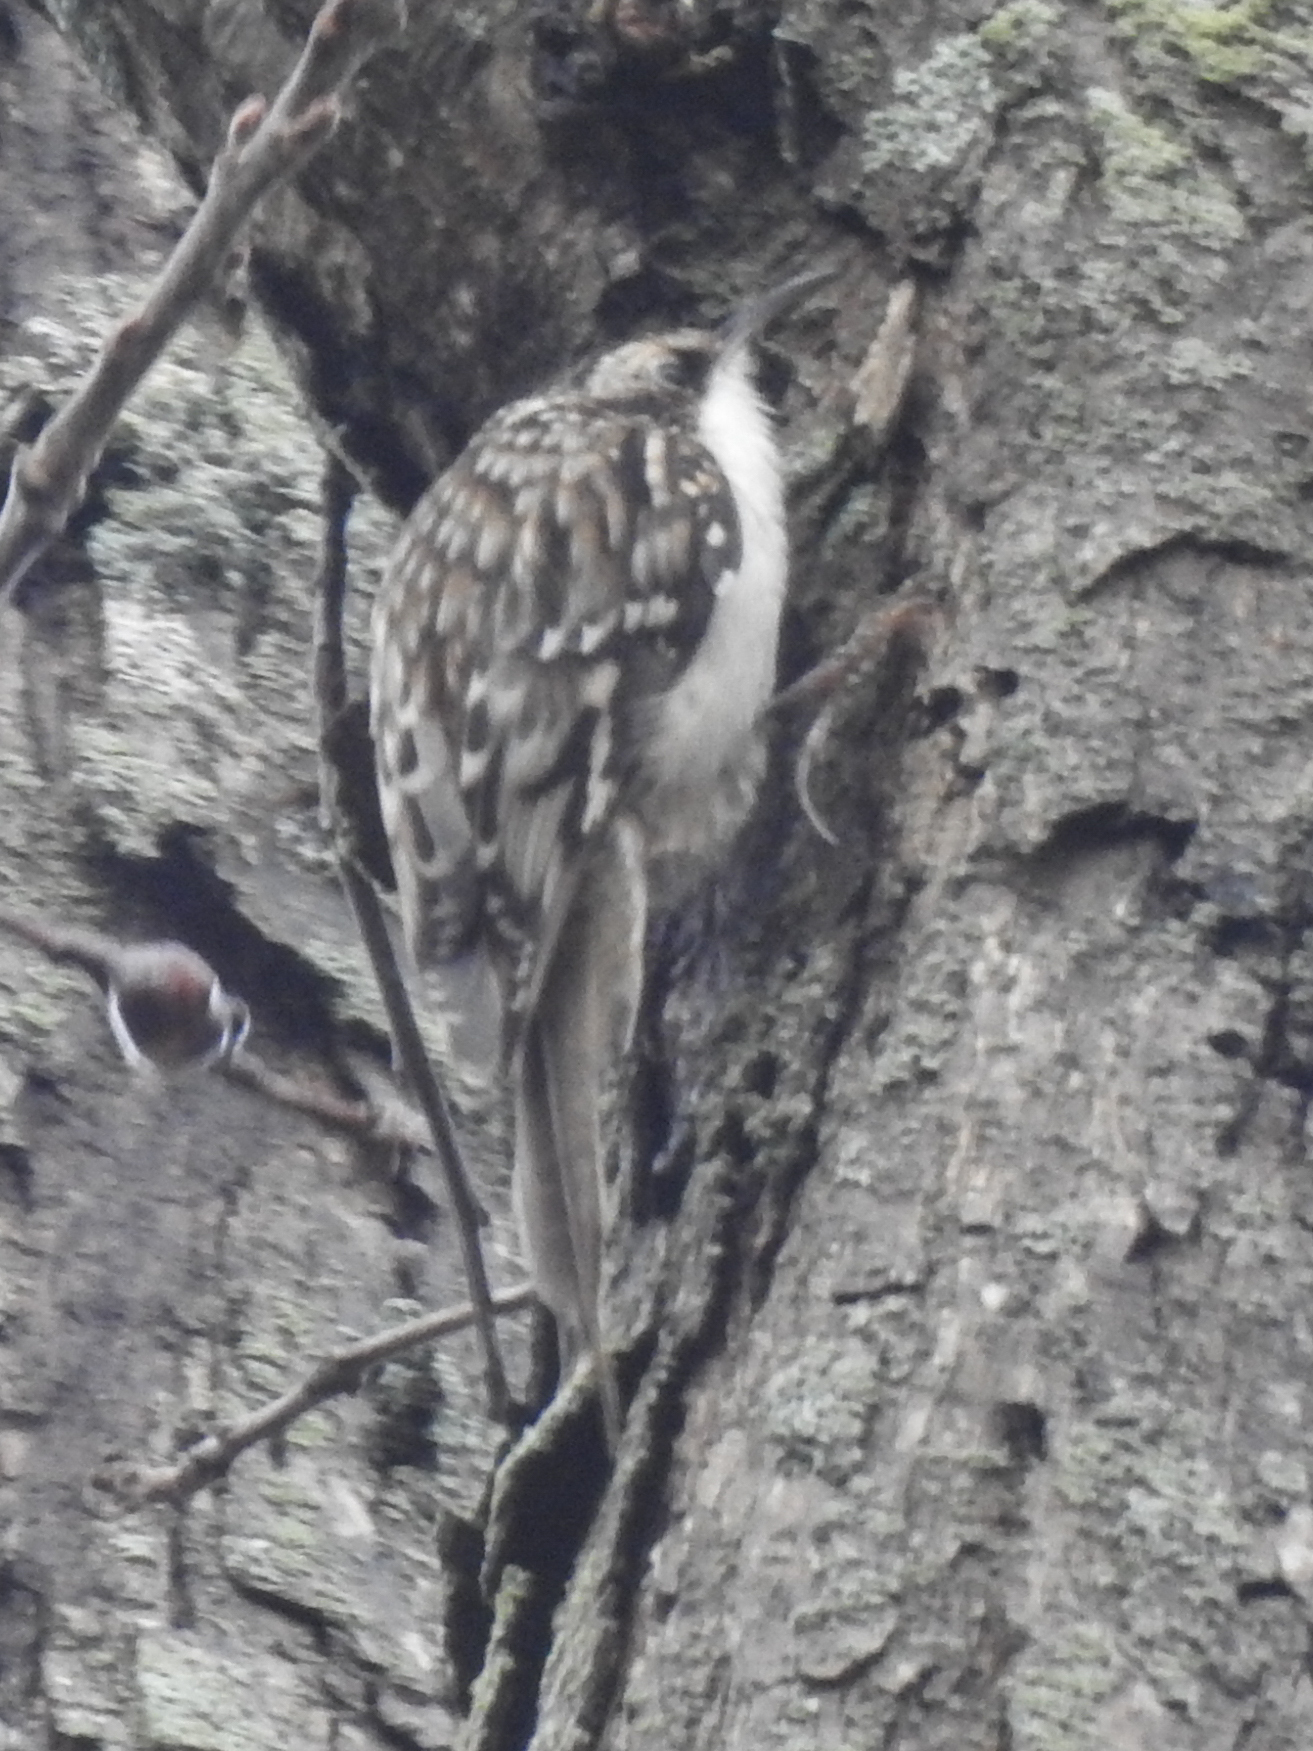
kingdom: Animalia
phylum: Chordata
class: Aves
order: Passeriformes
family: Certhiidae
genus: Certhia
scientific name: Certhia americana
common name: Brown creeper
